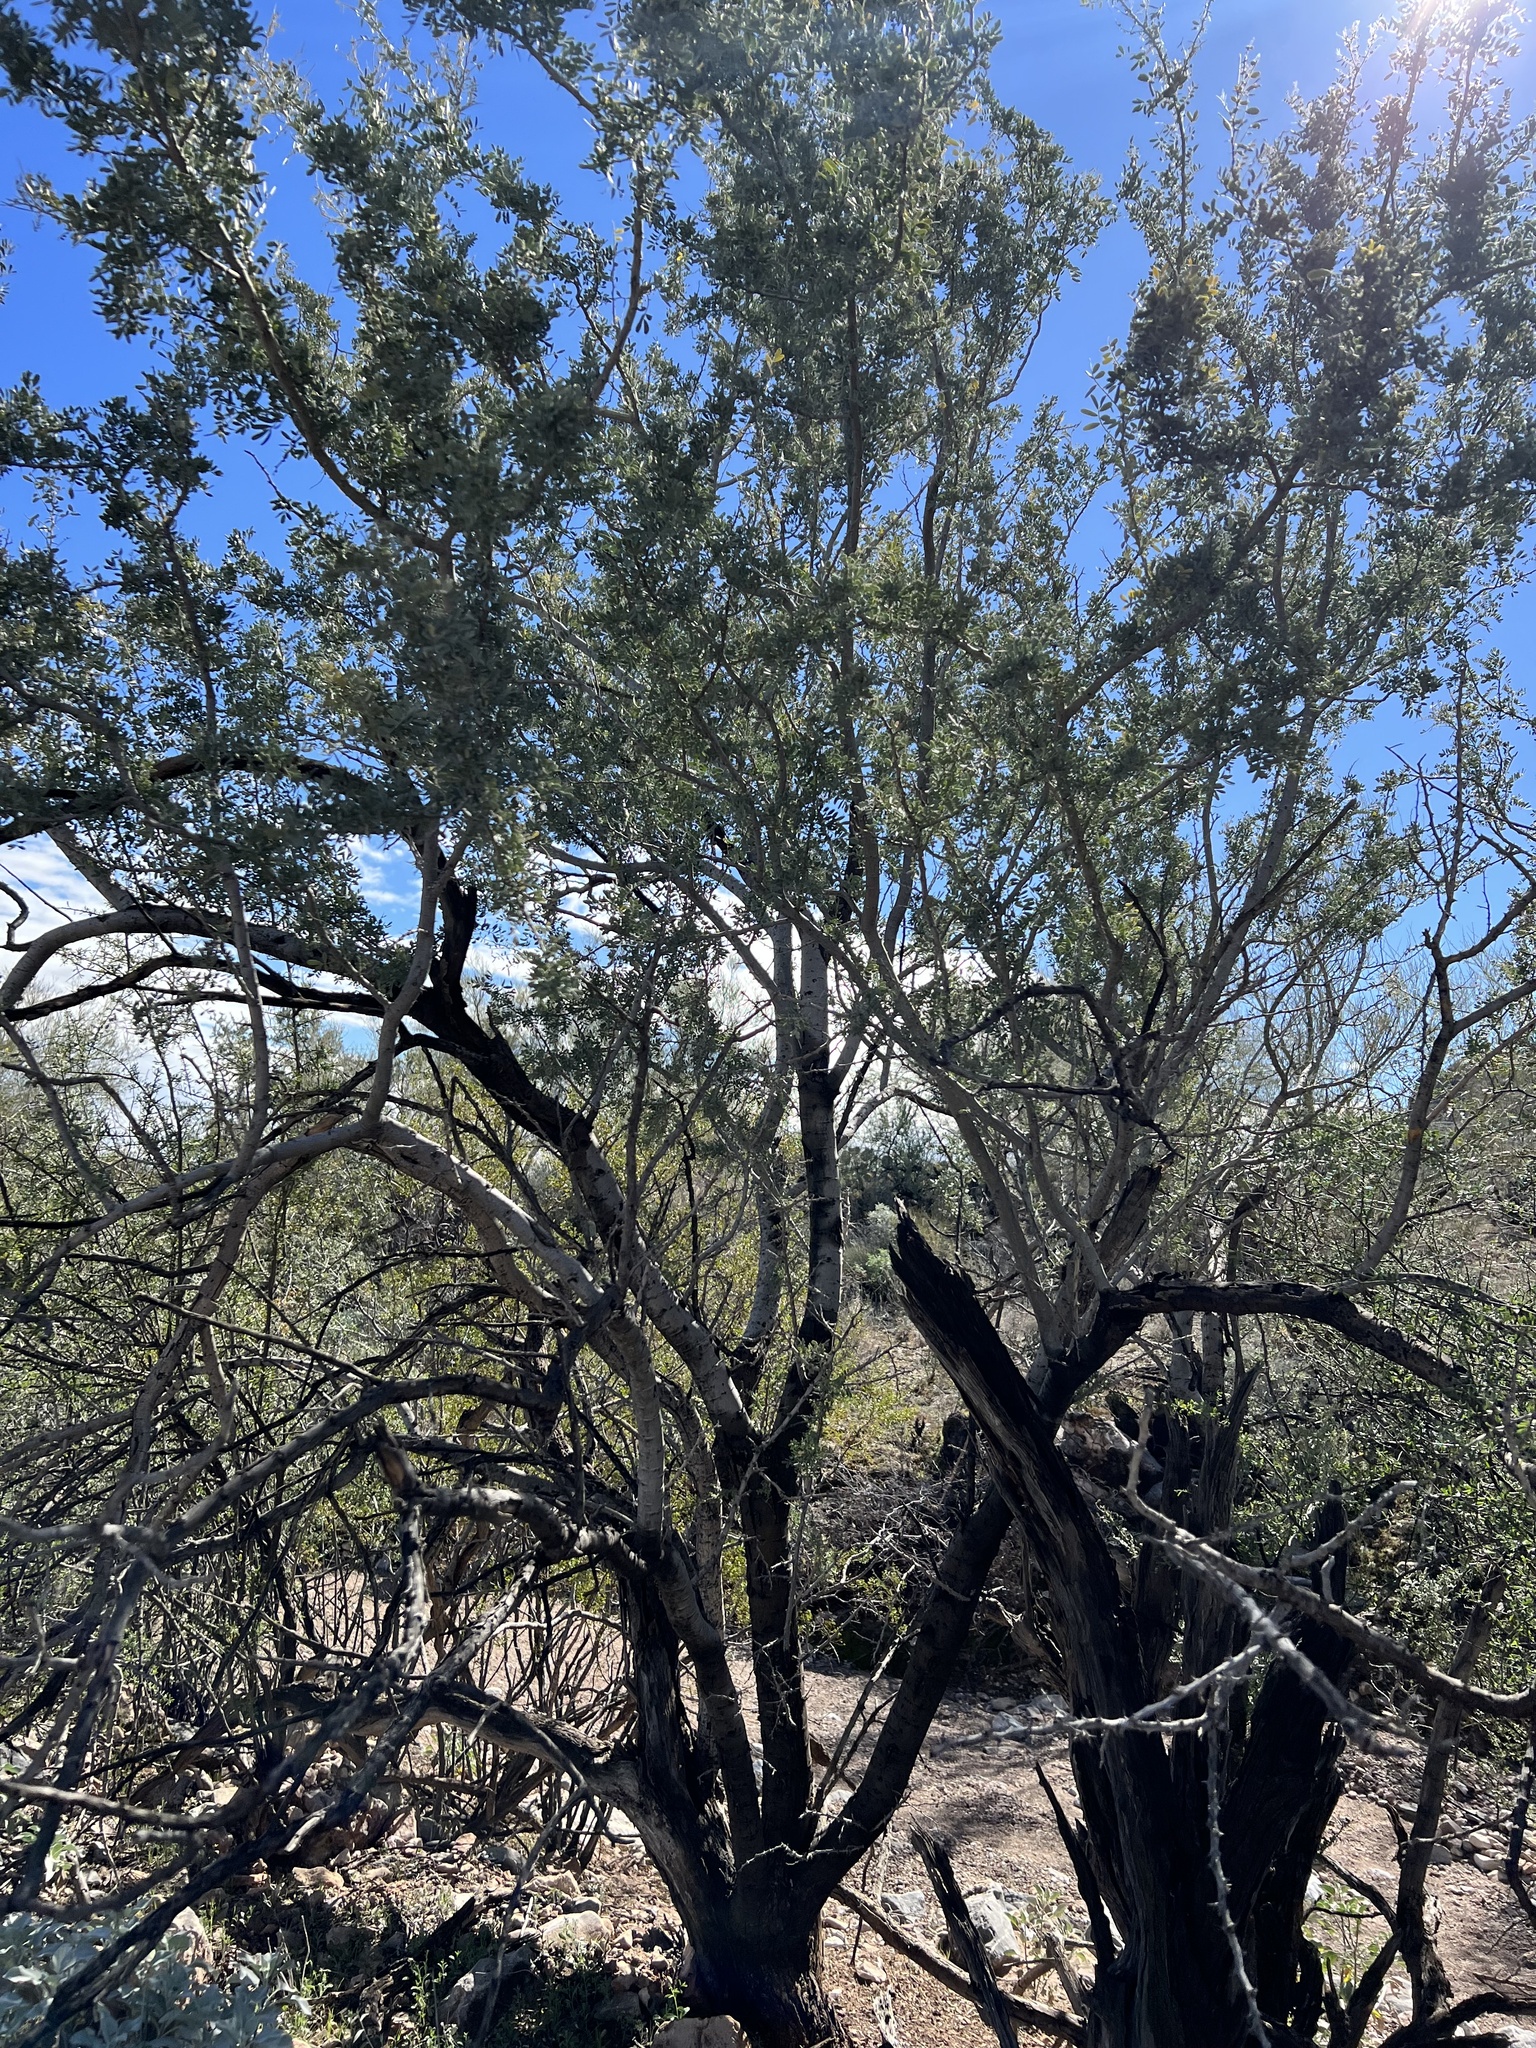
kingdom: Plantae
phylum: Tracheophyta
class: Magnoliopsida
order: Fabales
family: Fabaceae
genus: Olneya
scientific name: Olneya tesota
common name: Desert ironwood
